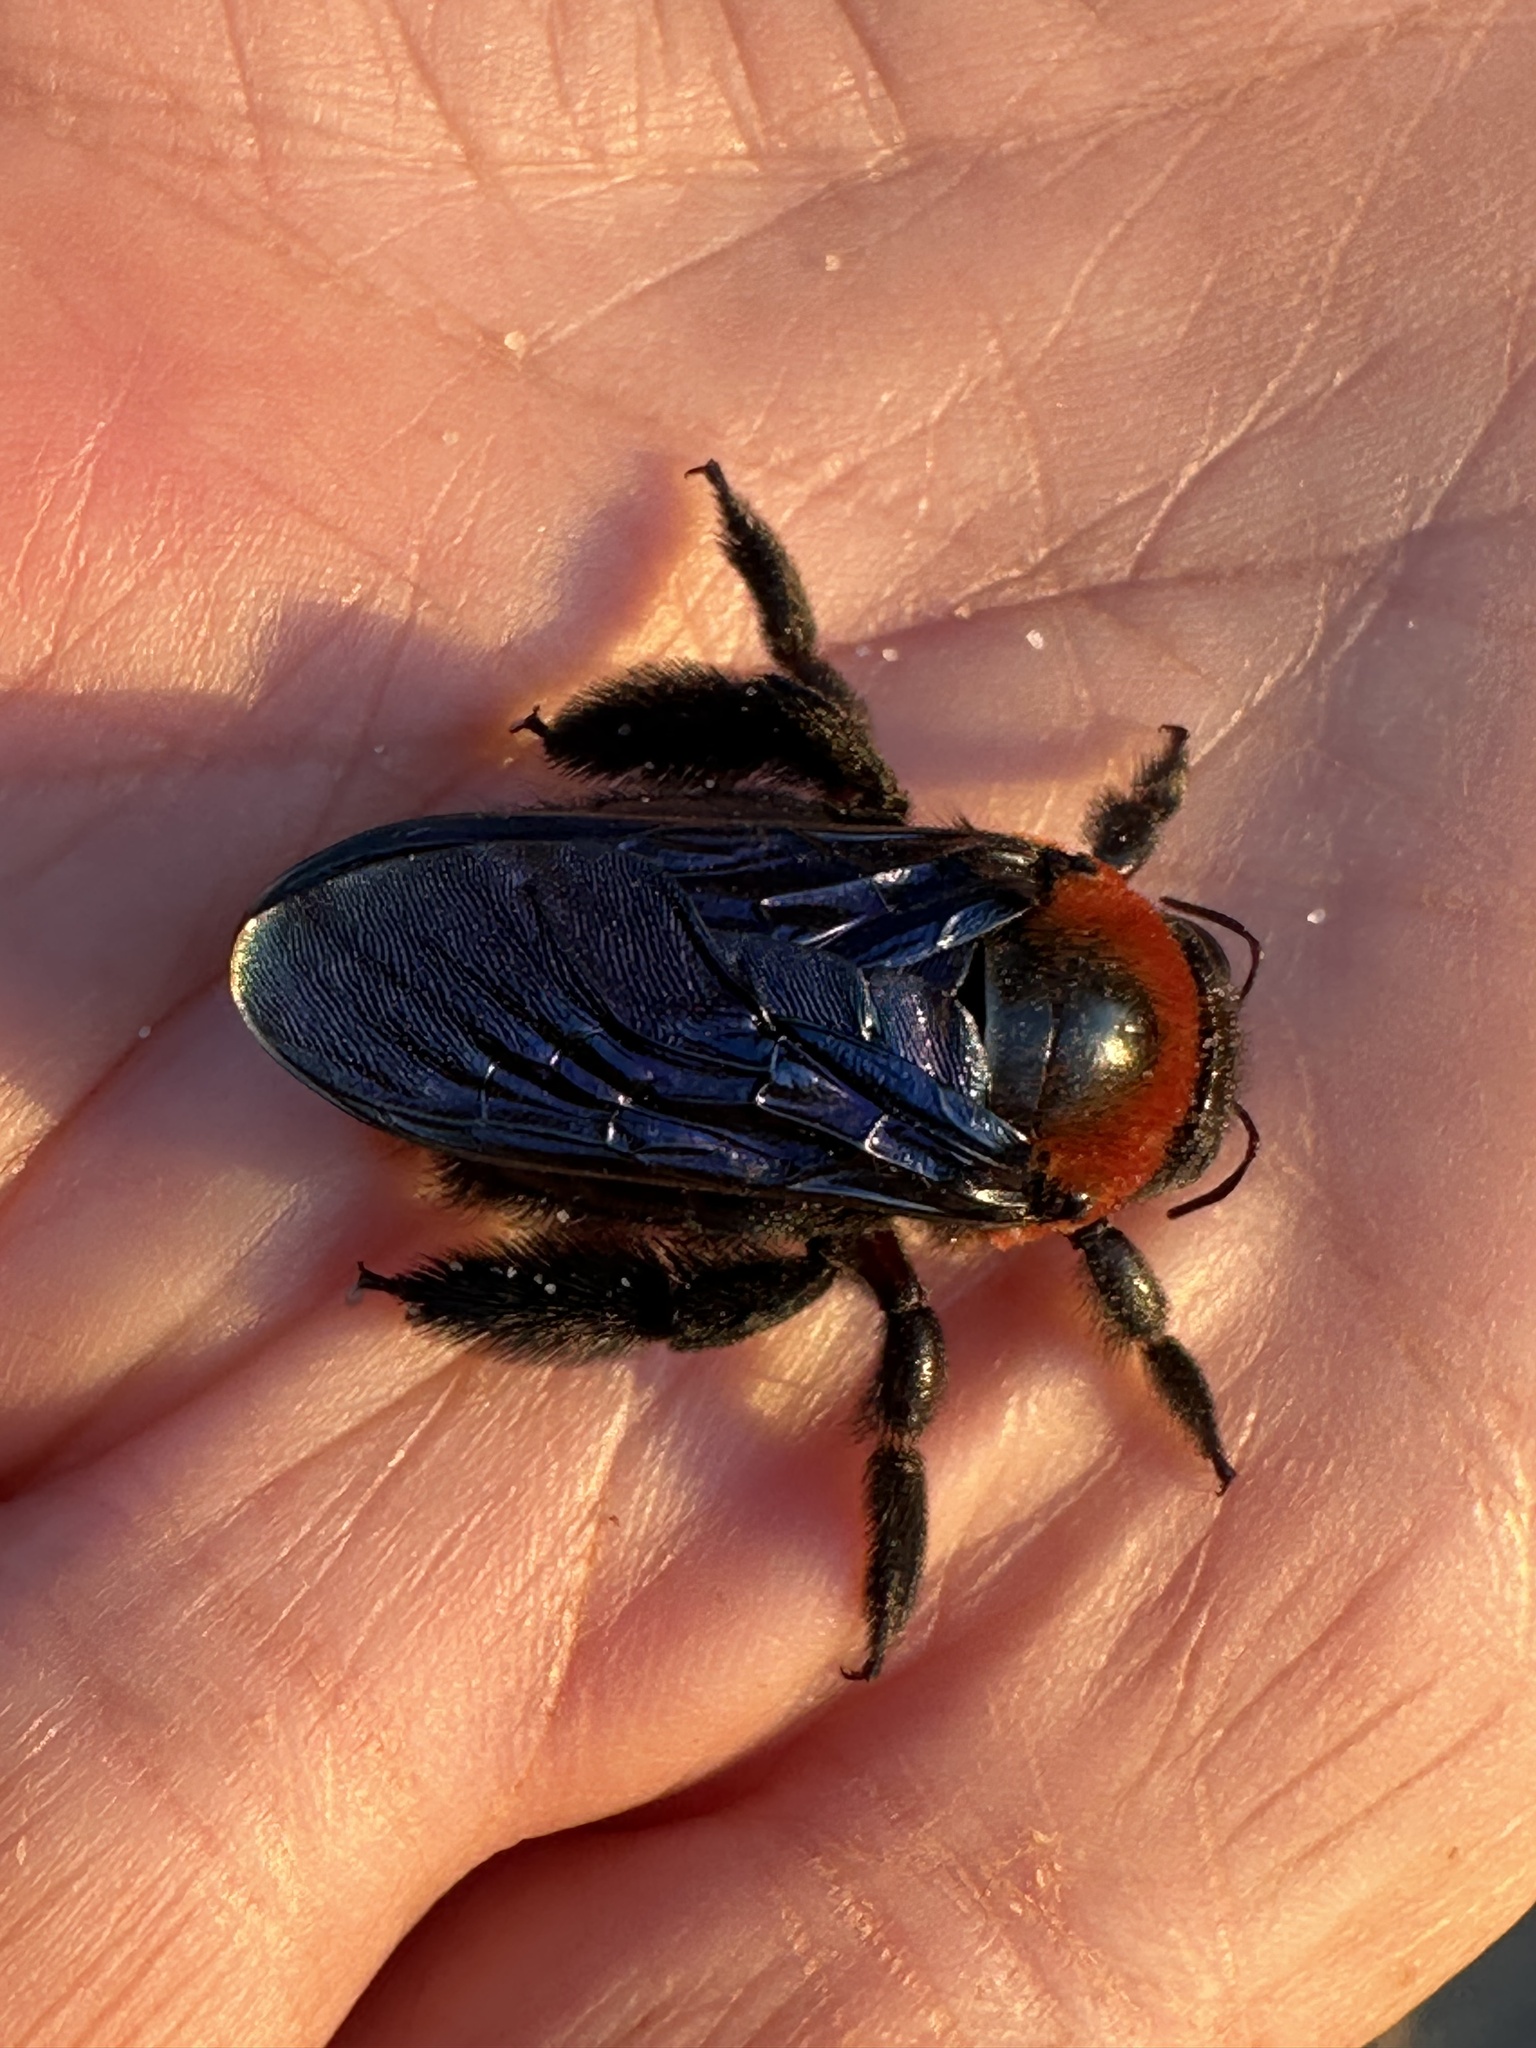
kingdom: Animalia
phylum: Arthropoda
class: Insecta
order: Hymenoptera
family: Apidae
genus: Xylocopa
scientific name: Xylocopa flavorufa
